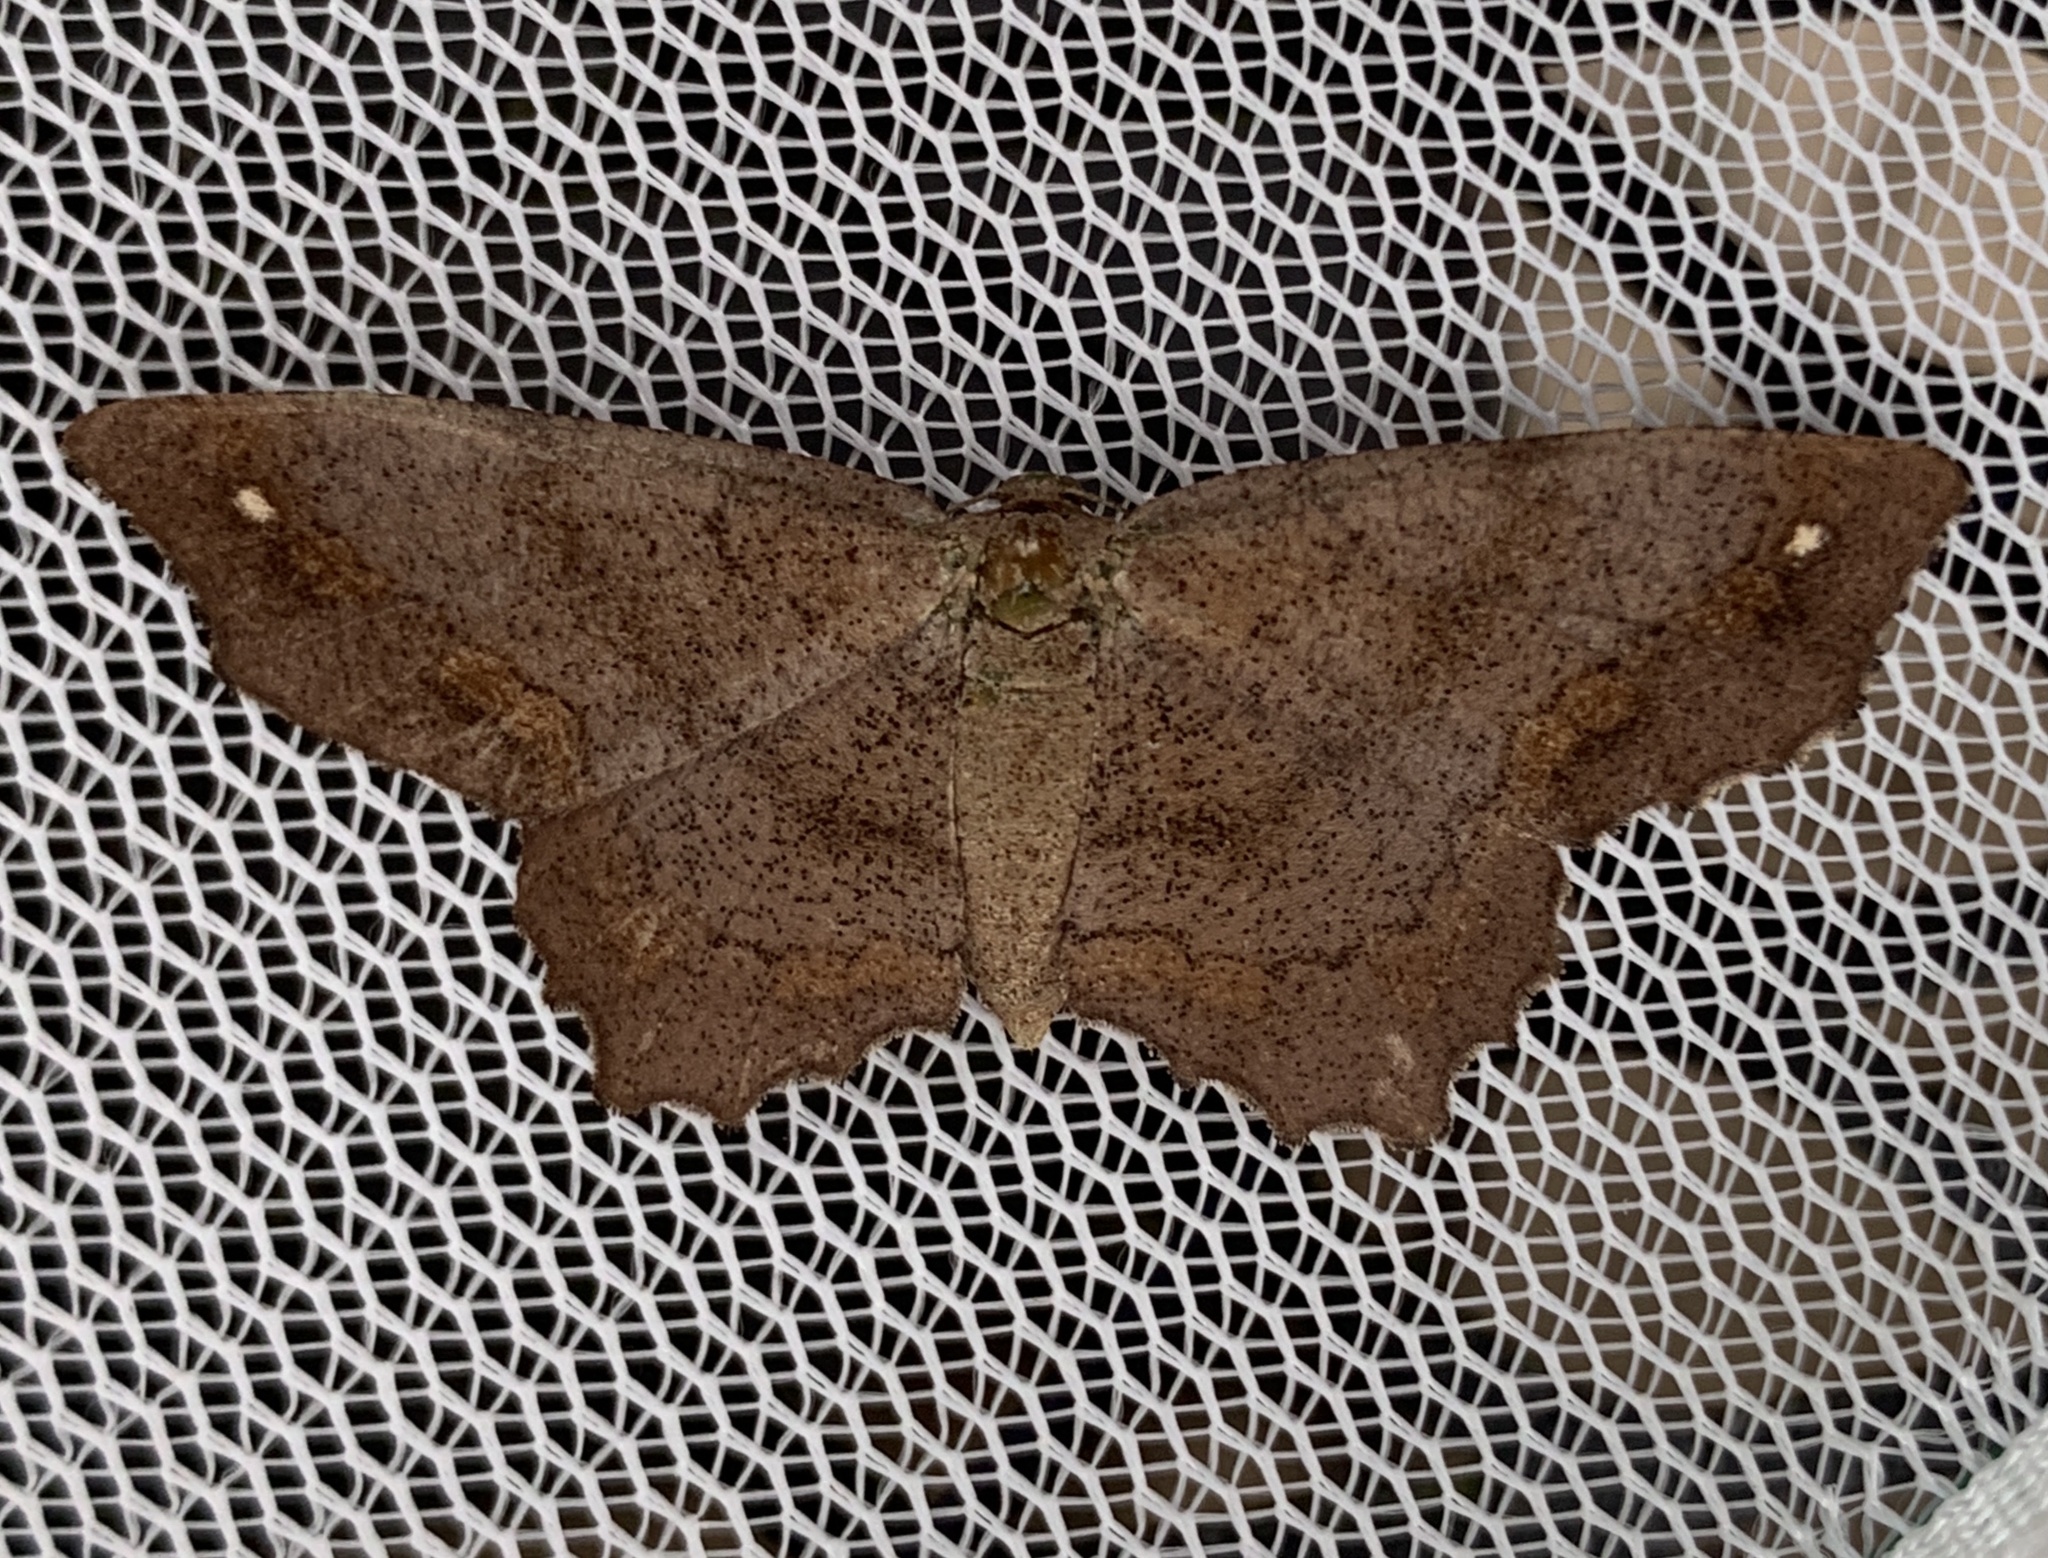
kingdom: Animalia
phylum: Arthropoda
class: Insecta
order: Lepidoptera
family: Geometridae
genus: Hypagyrtis
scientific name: Hypagyrtis esther
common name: Esther moth
